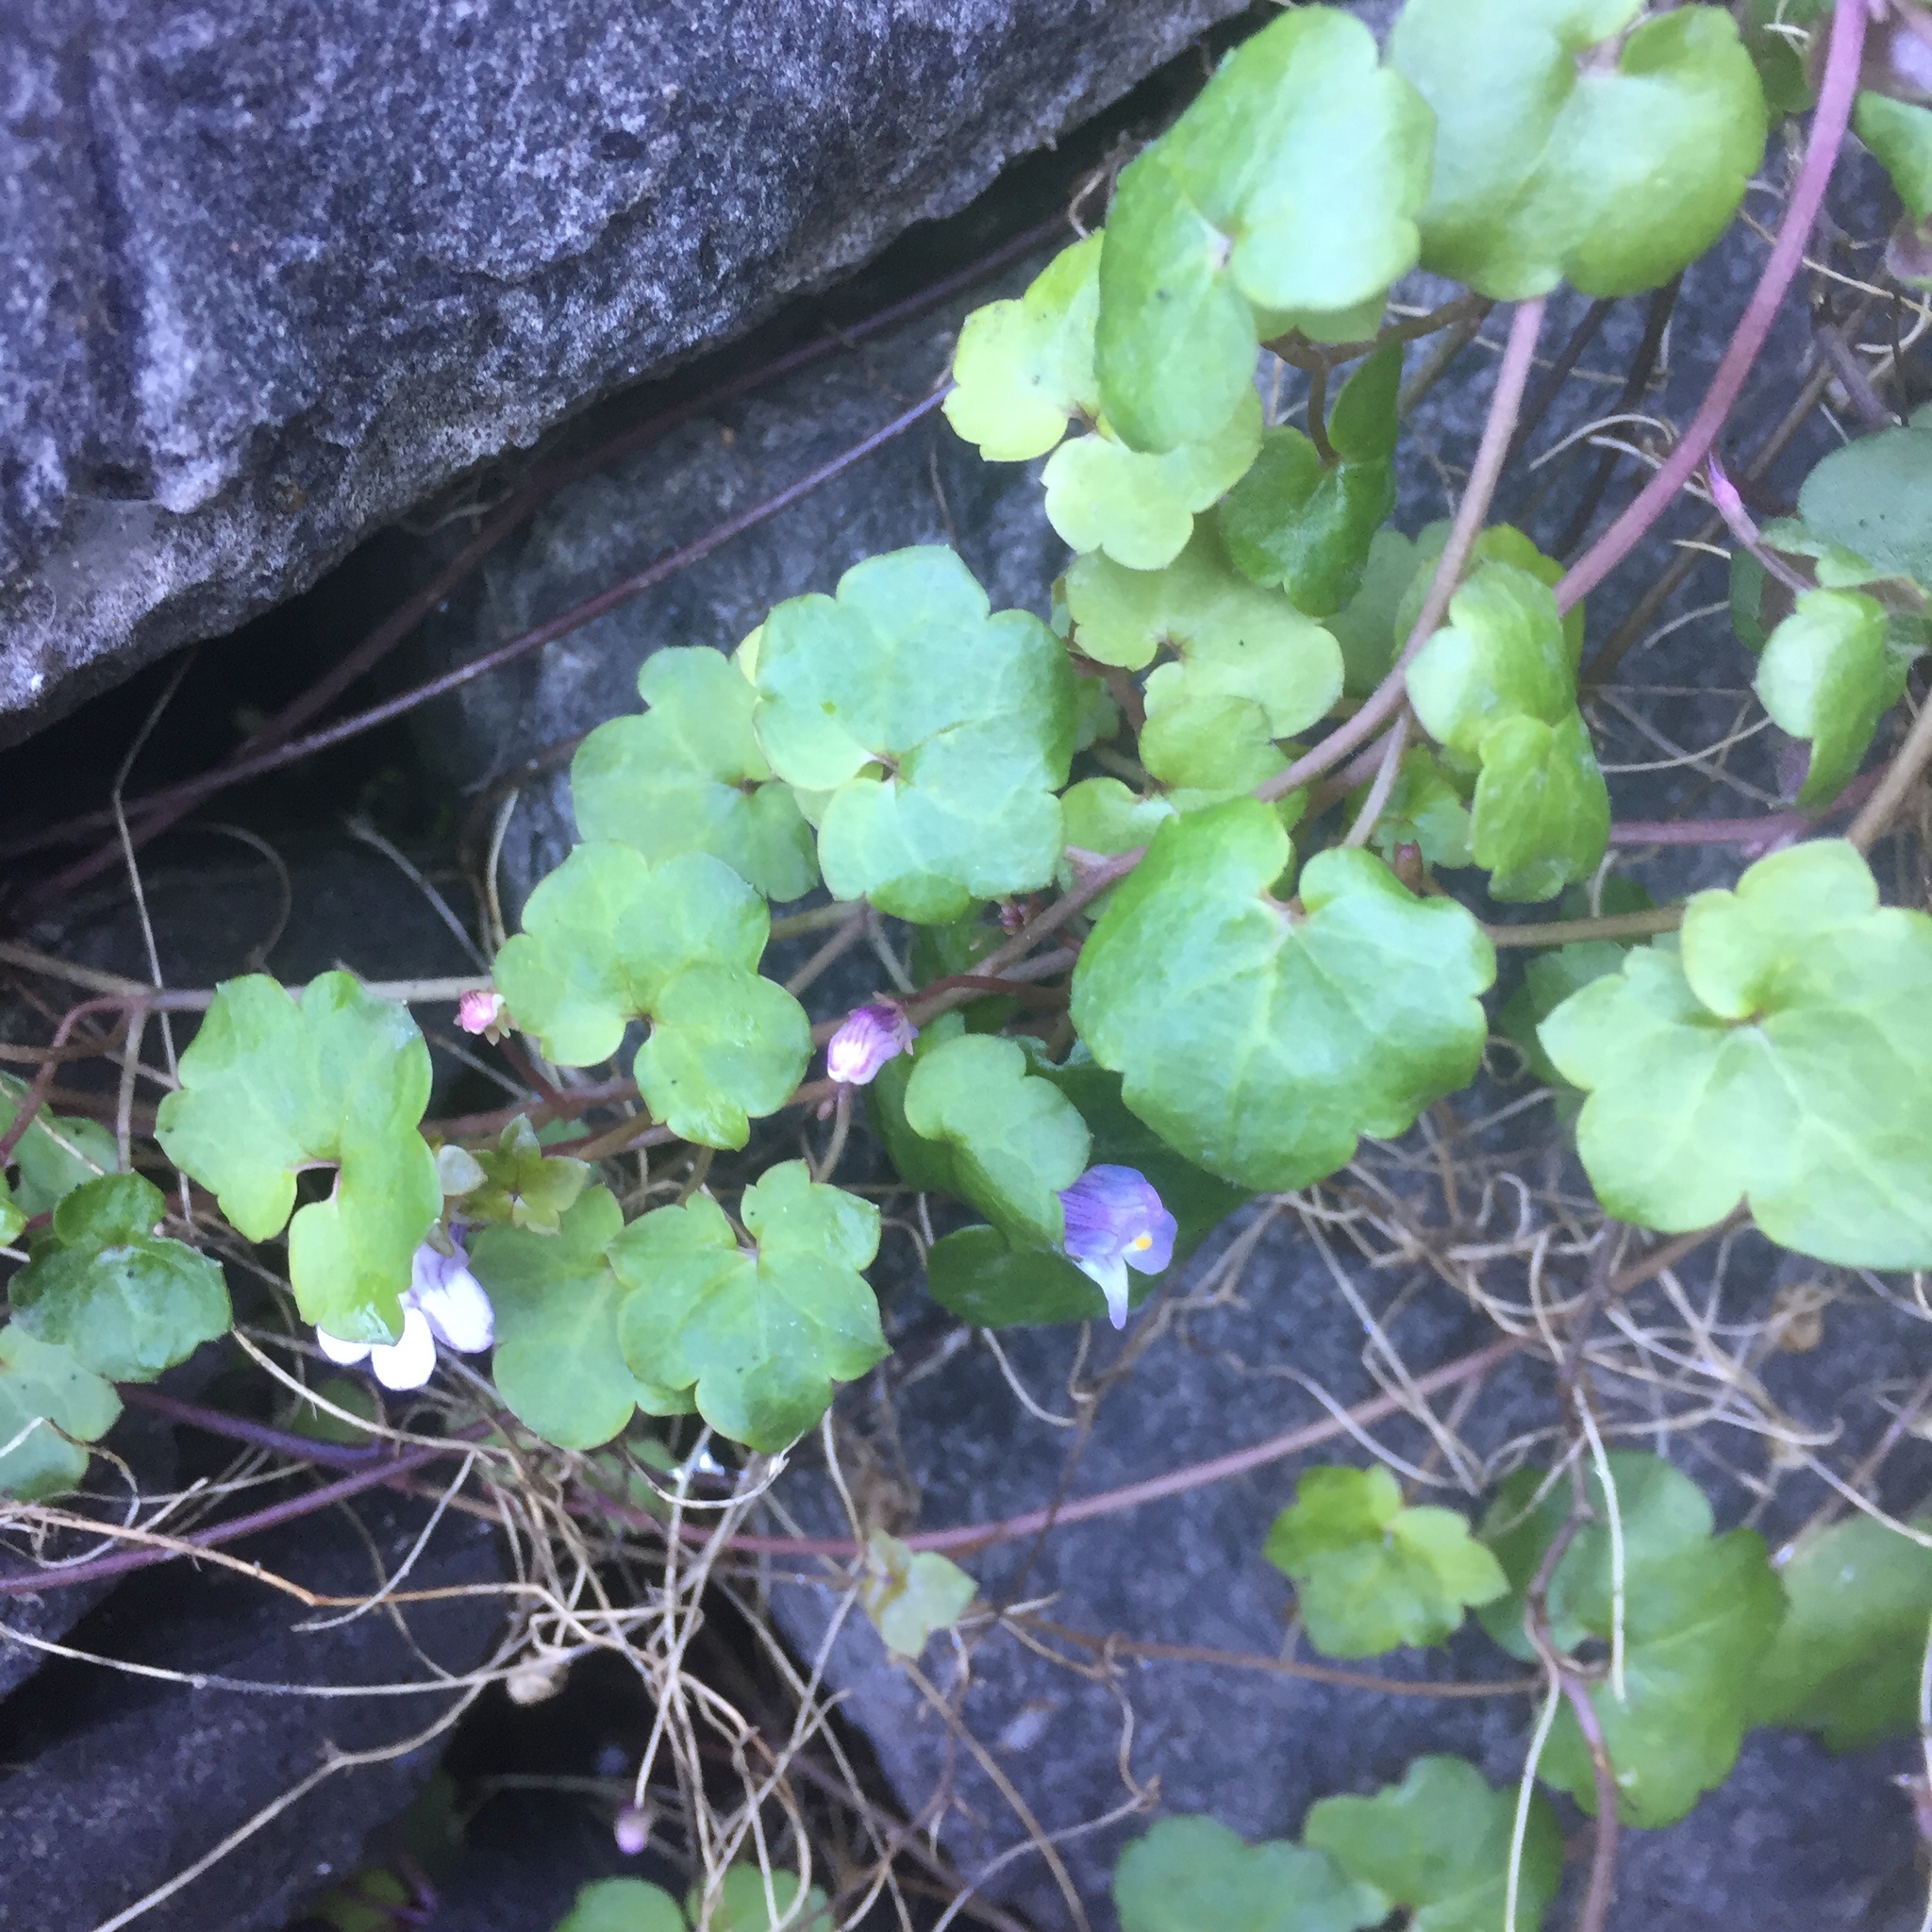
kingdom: Plantae
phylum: Tracheophyta
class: Magnoliopsida
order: Lamiales
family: Plantaginaceae
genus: Cymbalaria
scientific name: Cymbalaria muralis
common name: Ivy-leaved toadflax
